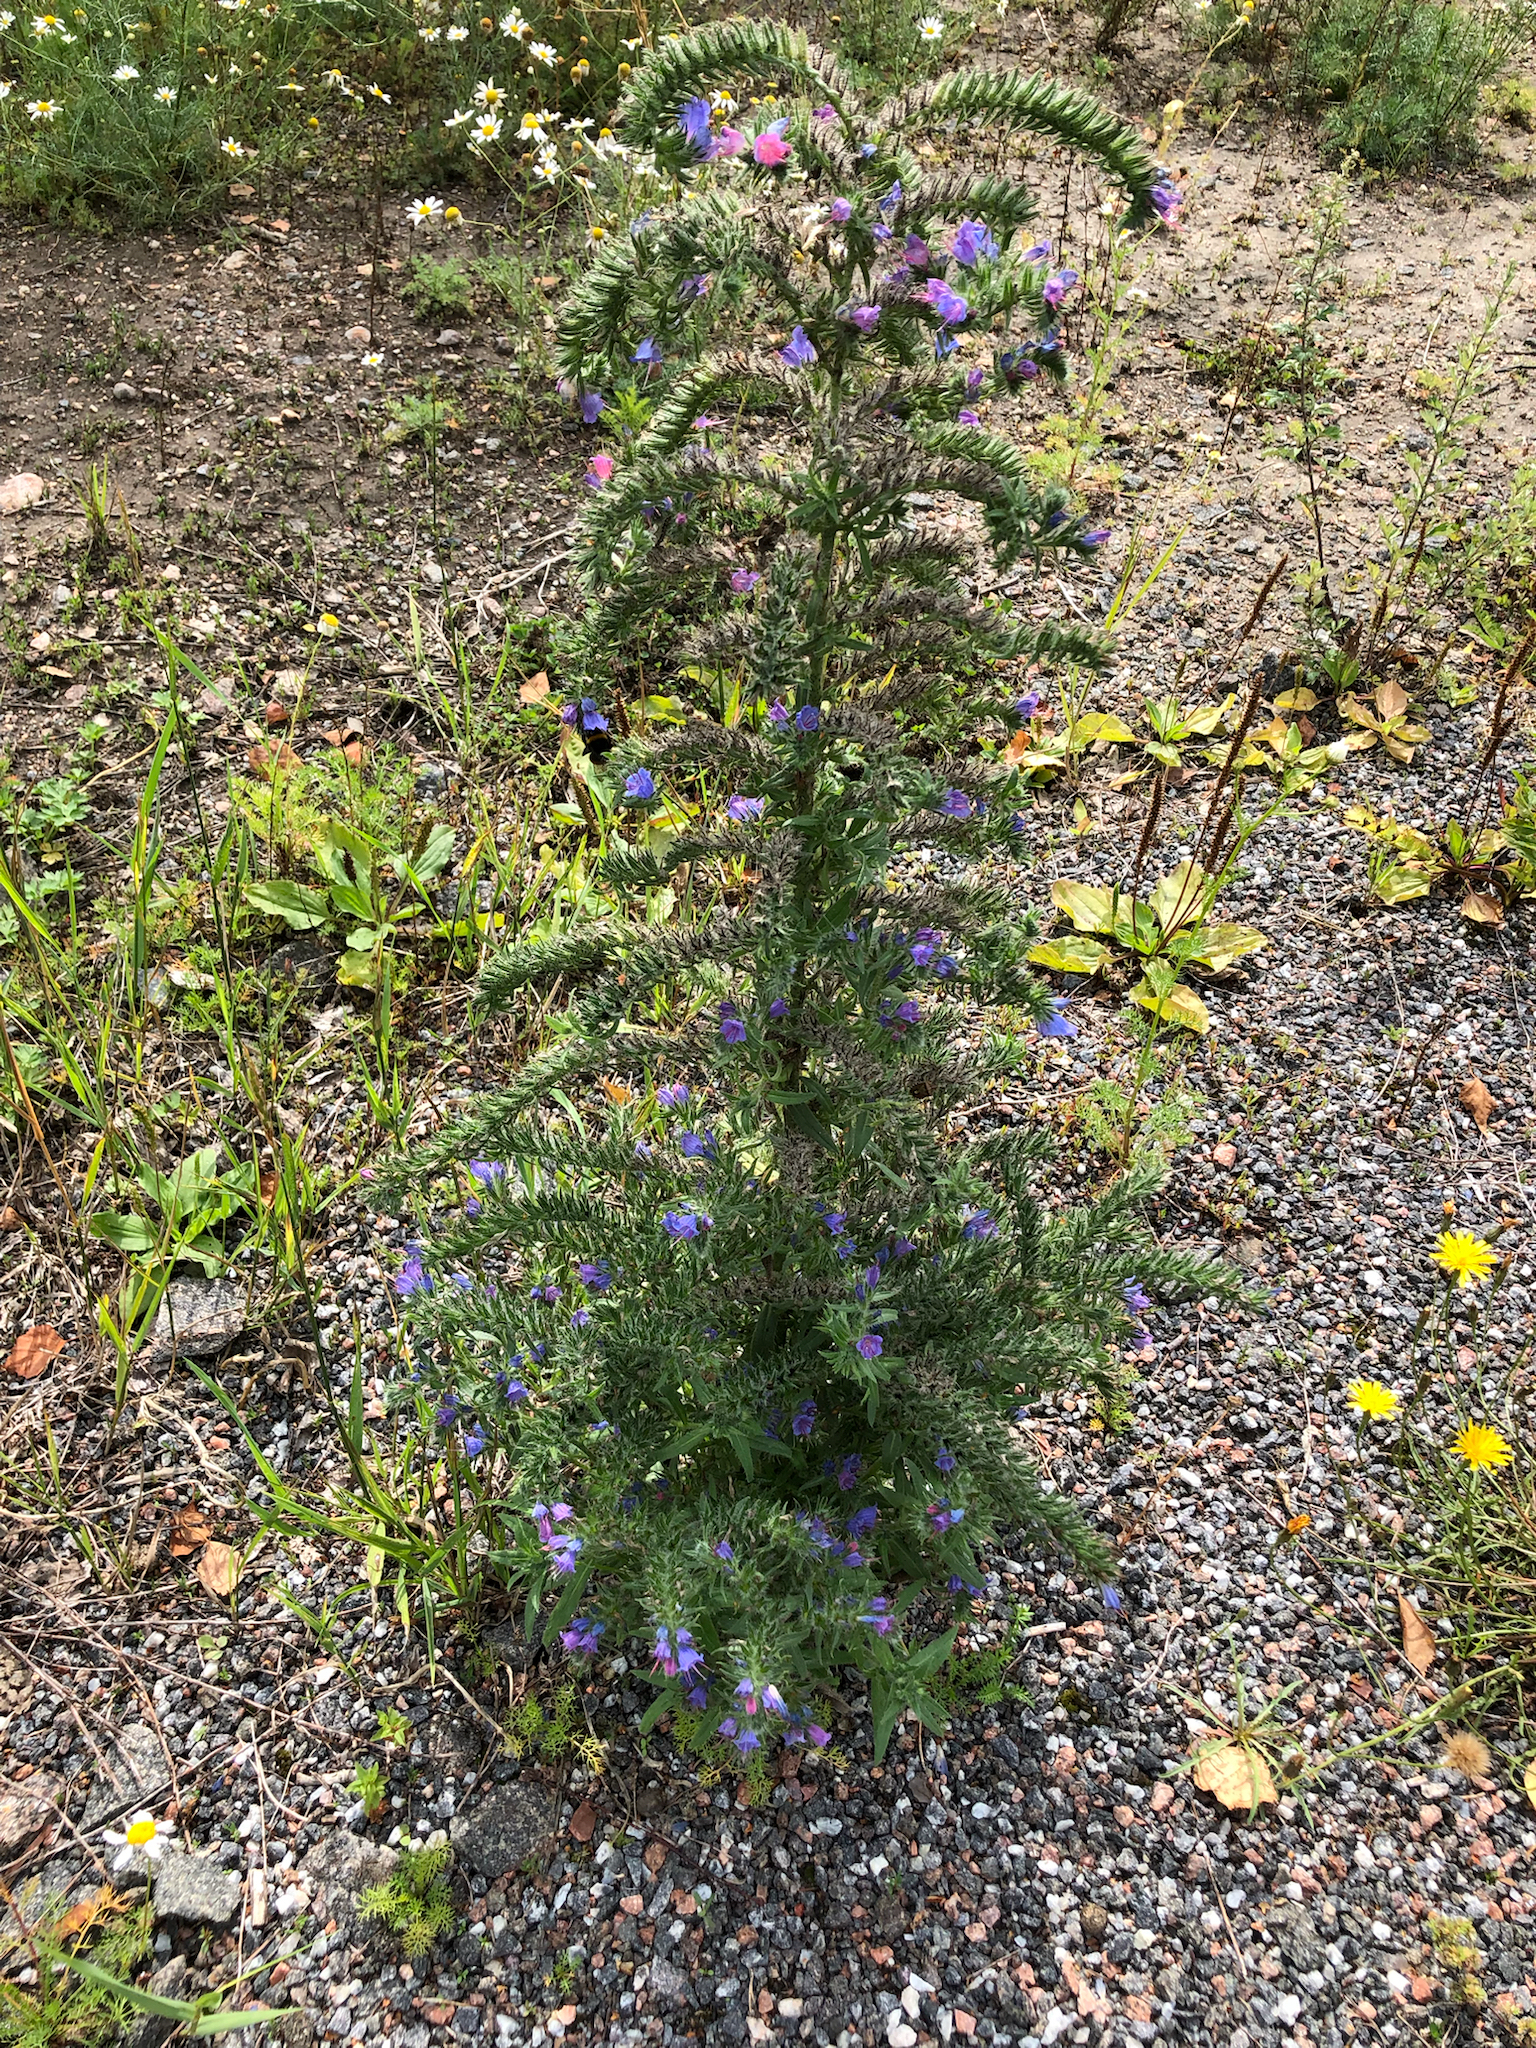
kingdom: Plantae
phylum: Tracheophyta
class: Magnoliopsida
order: Boraginales
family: Boraginaceae
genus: Echium
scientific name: Echium vulgare
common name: Common viper's bugloss
